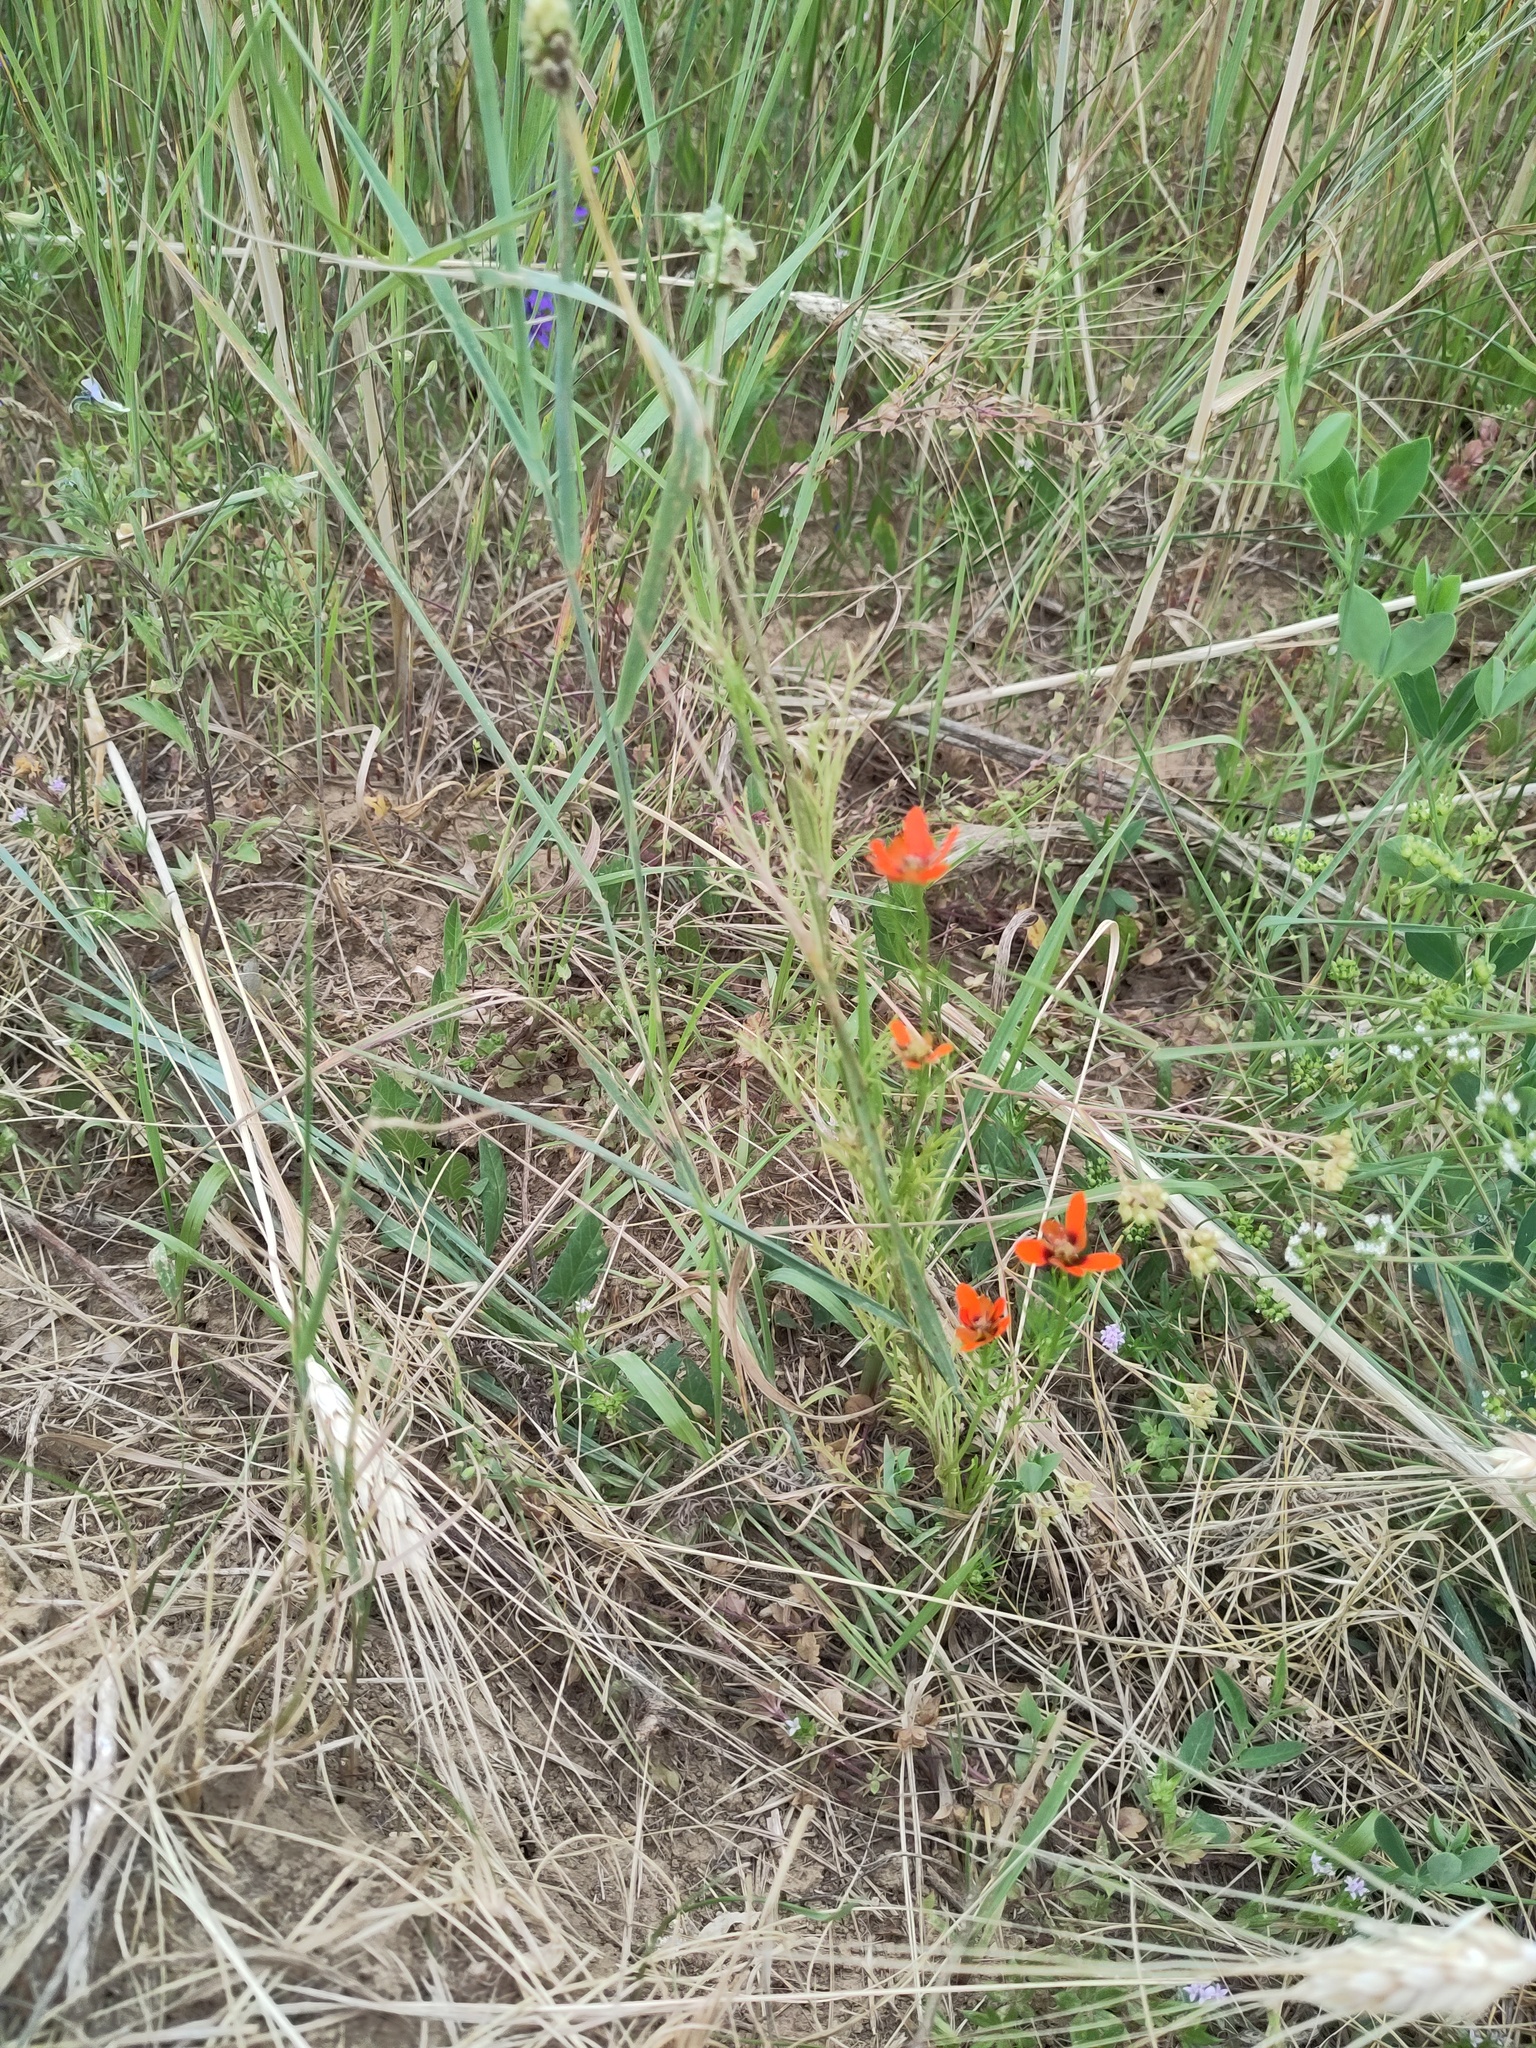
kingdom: Plantae
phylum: Tracheophyta
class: Magnoliopsida
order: Ranunculales
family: Ranunculaceae
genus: Adonis
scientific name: Adonis aestivalis
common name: Summer pheasant's-eye
